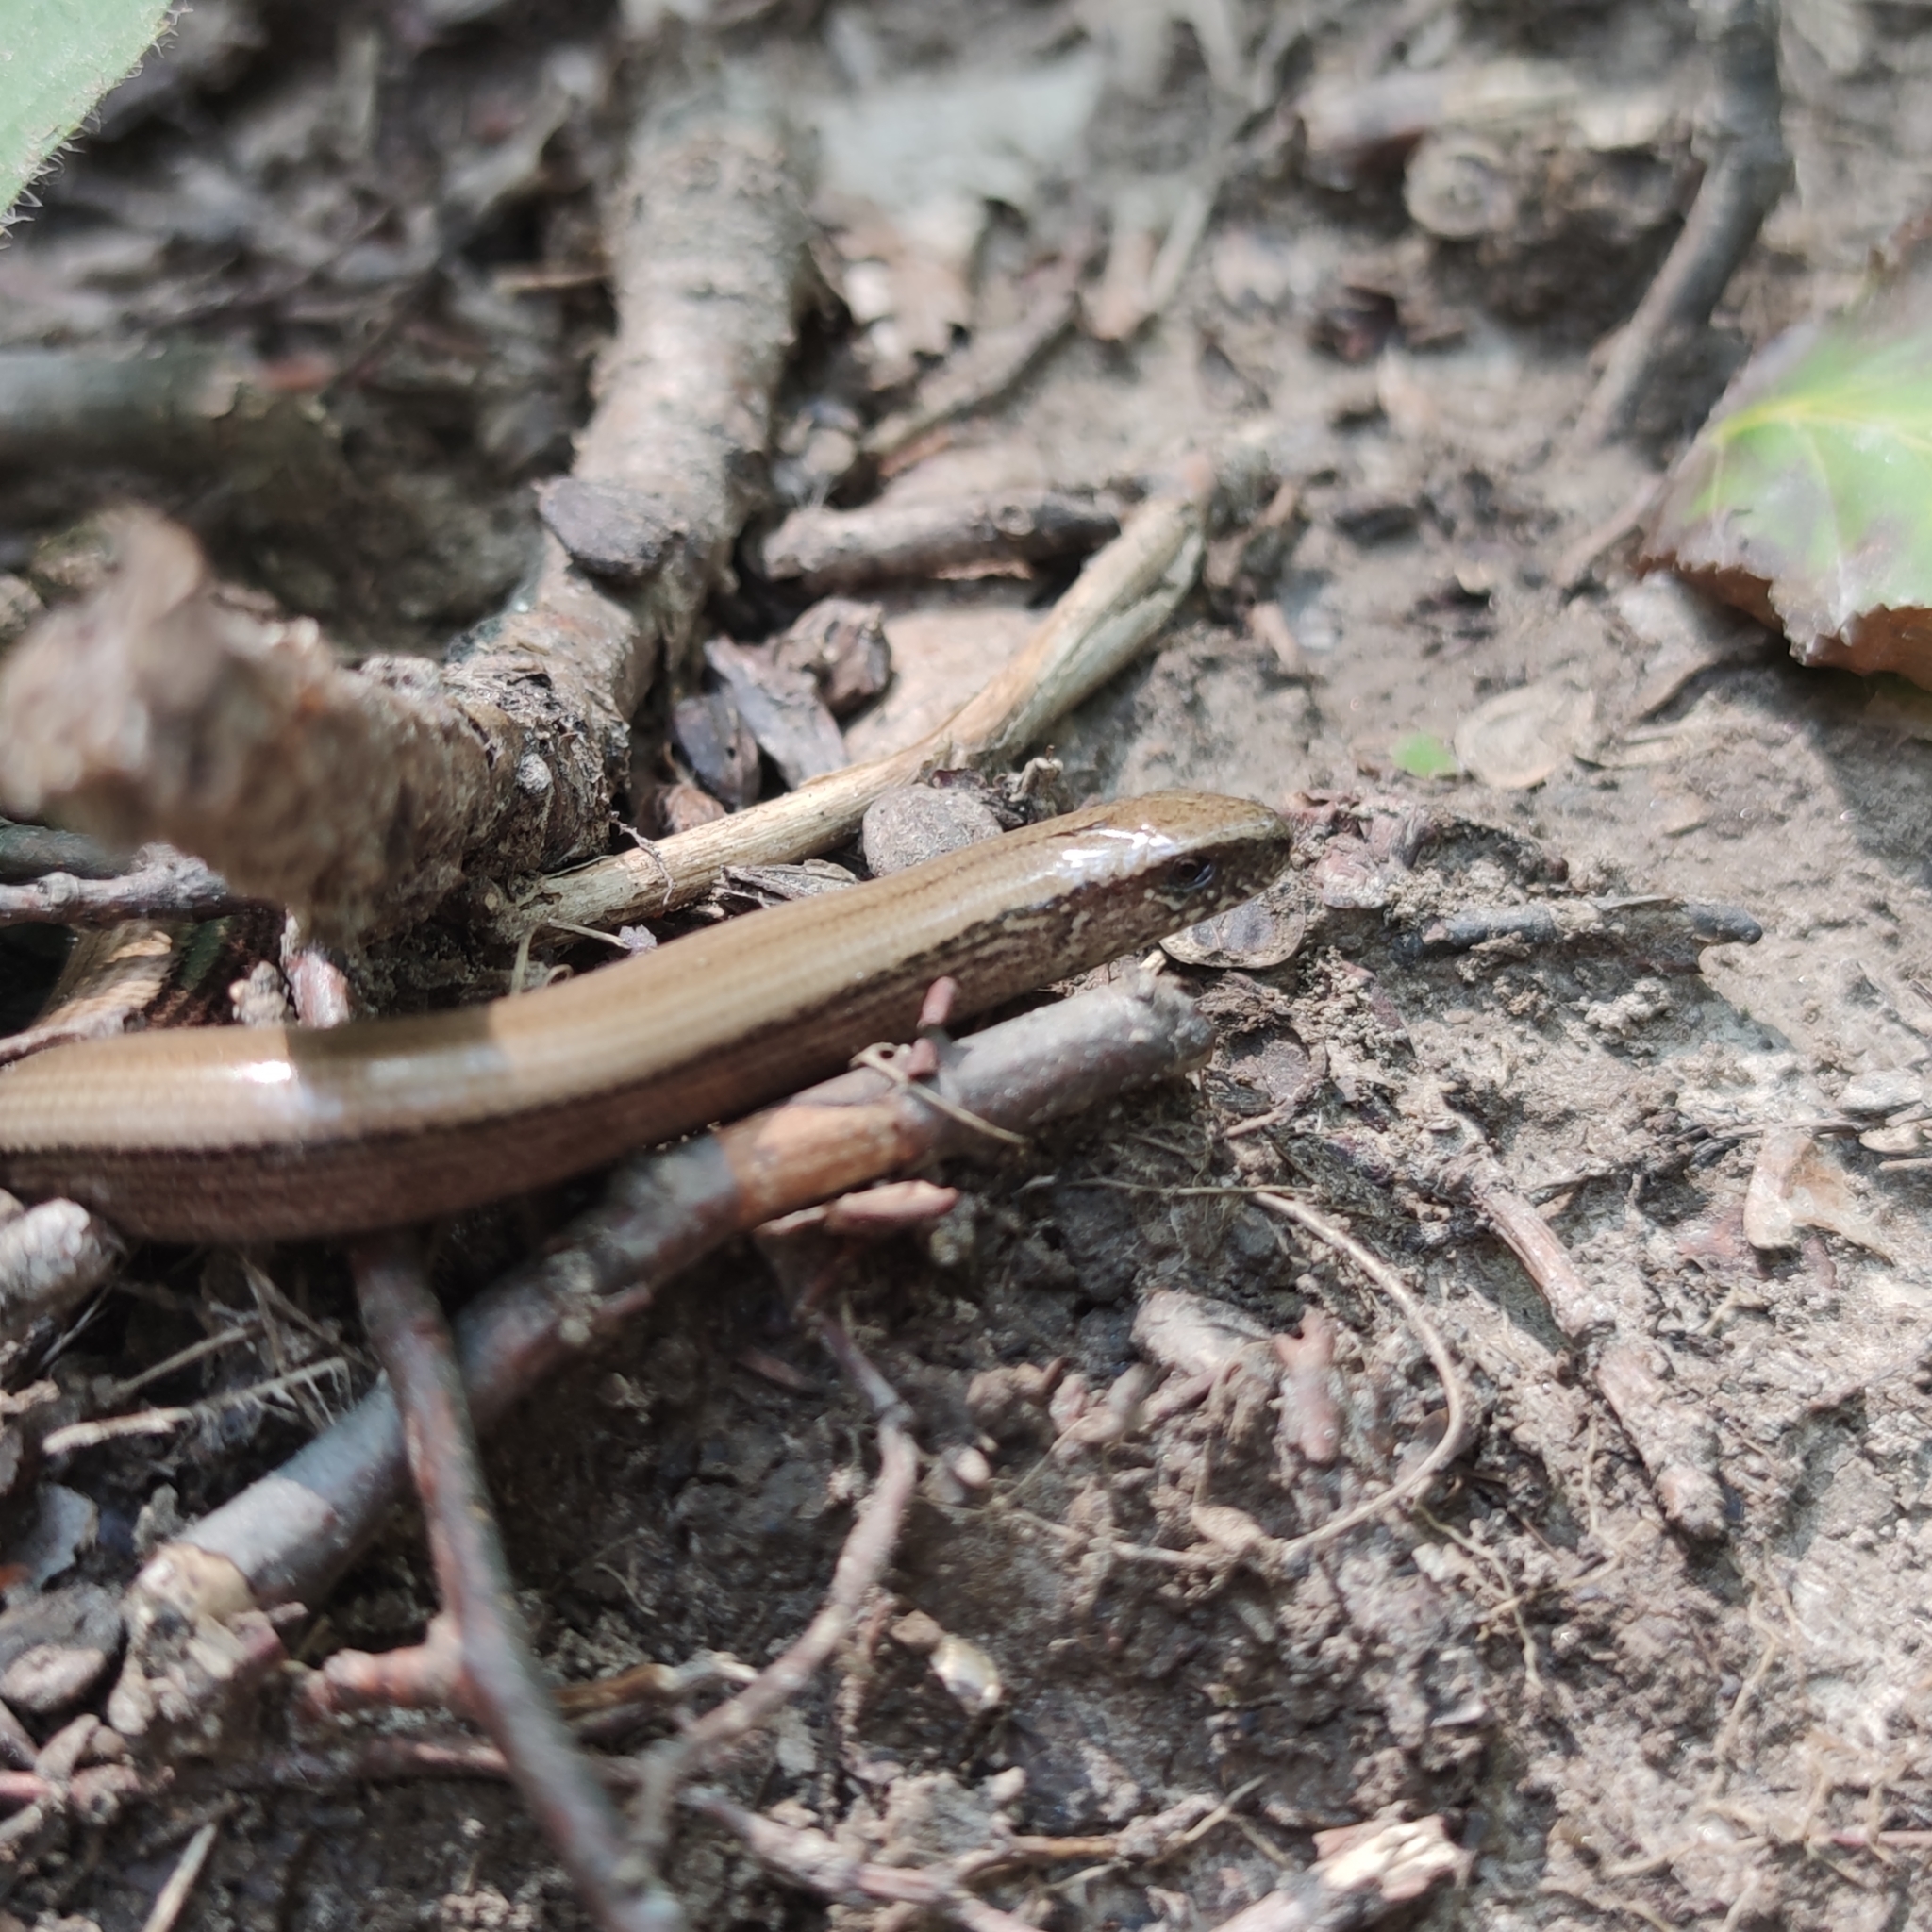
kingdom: Animalia
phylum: Chordata
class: Squamata
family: Anguidae
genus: Anguis
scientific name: Anguis fragilis
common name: Slow worm
